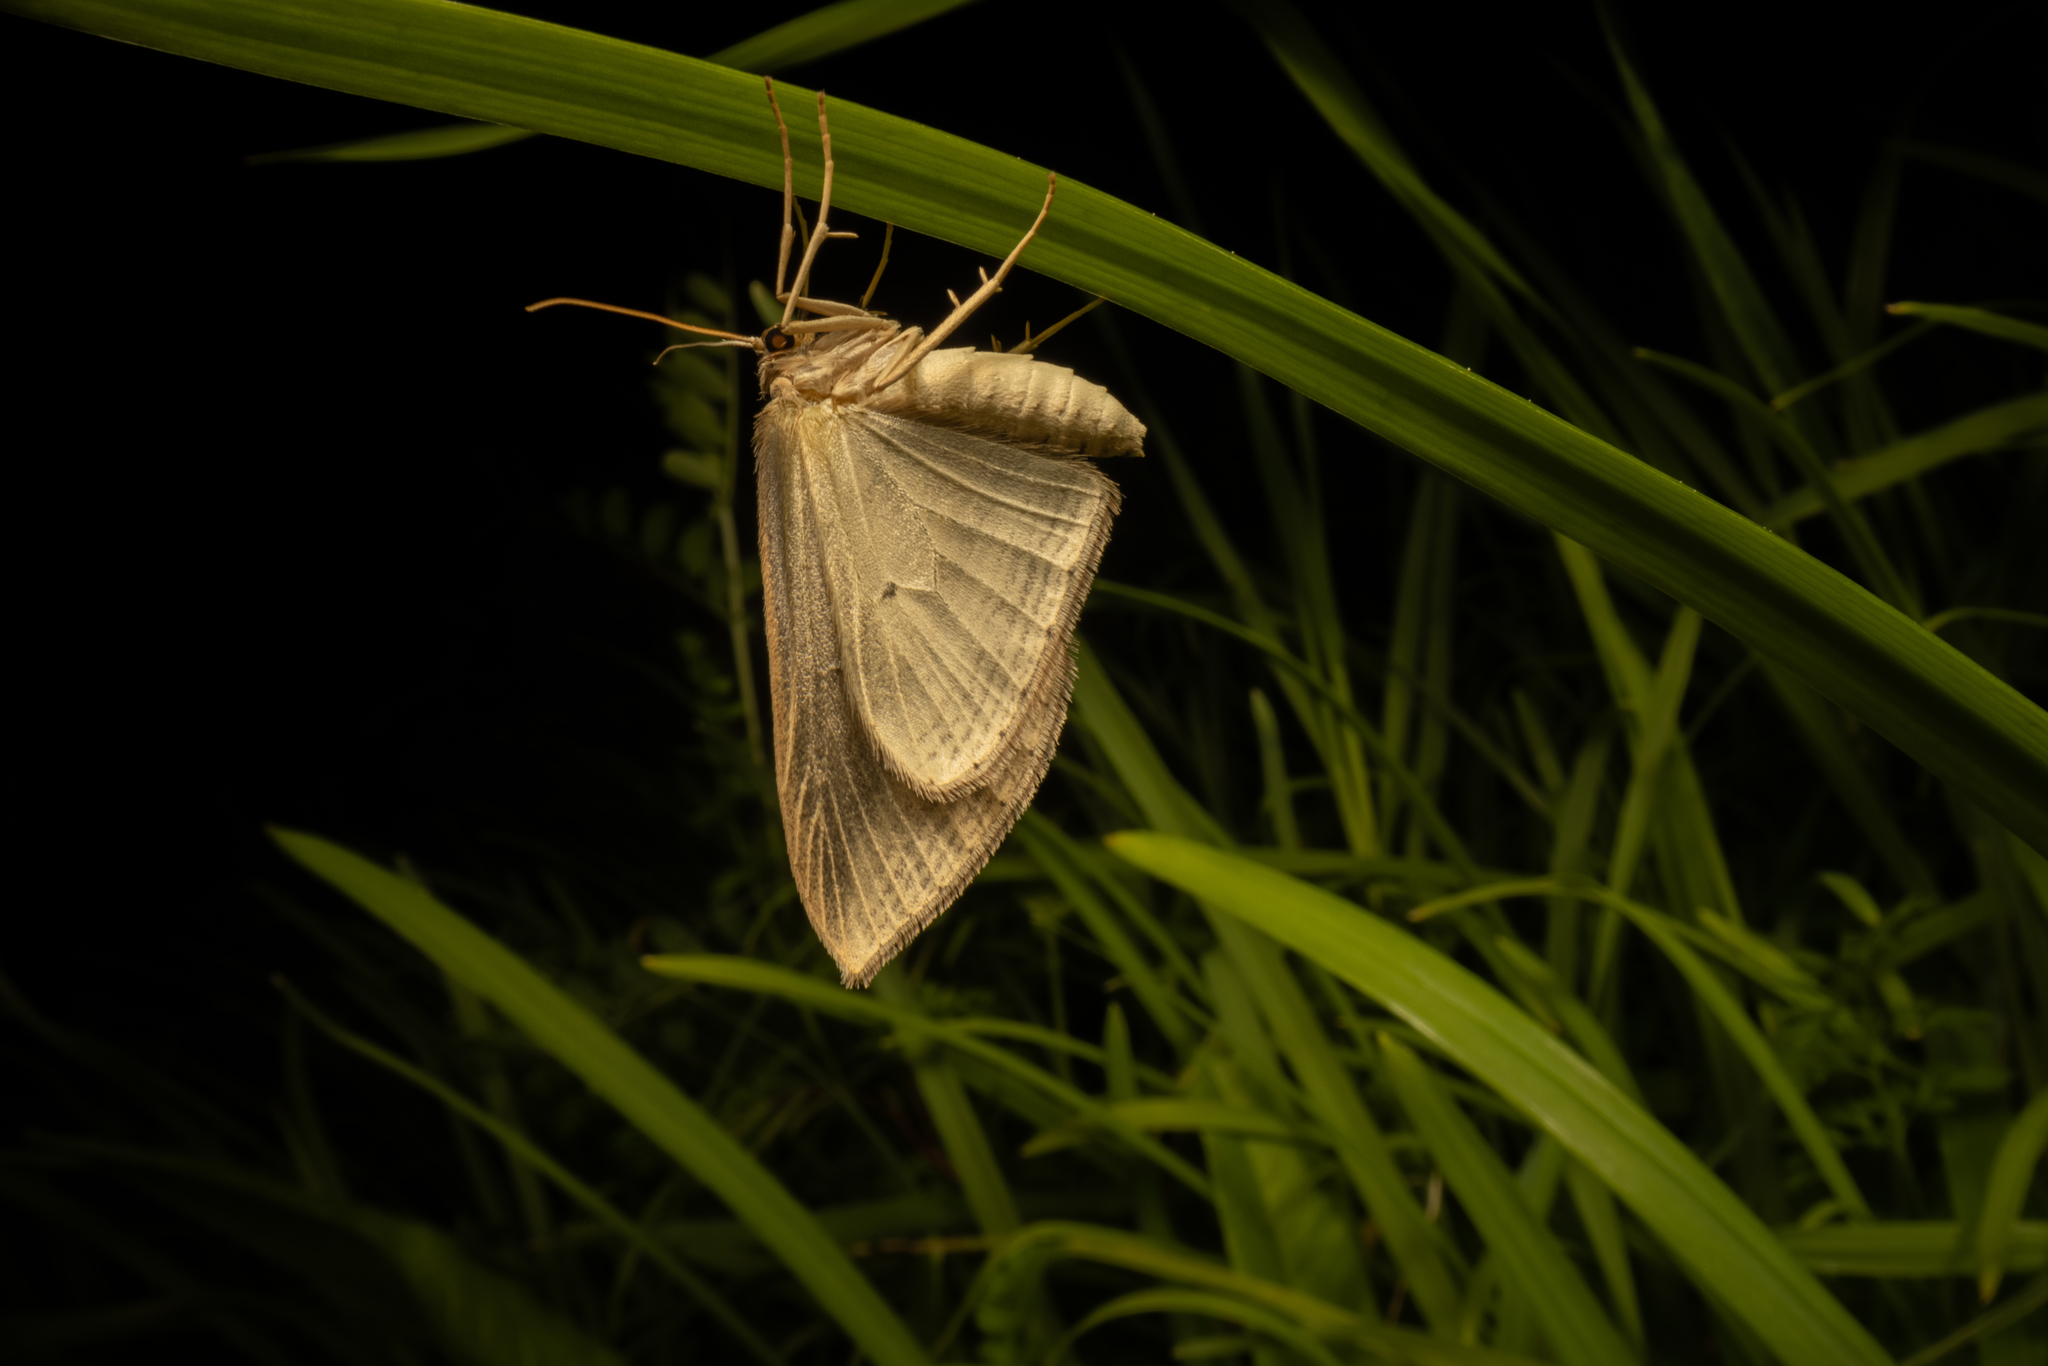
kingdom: Animalia
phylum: Arthropoda
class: Insecta
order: Lepidoptera
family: Geometridae
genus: Epiphryne
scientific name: Epiphryne verriculata
